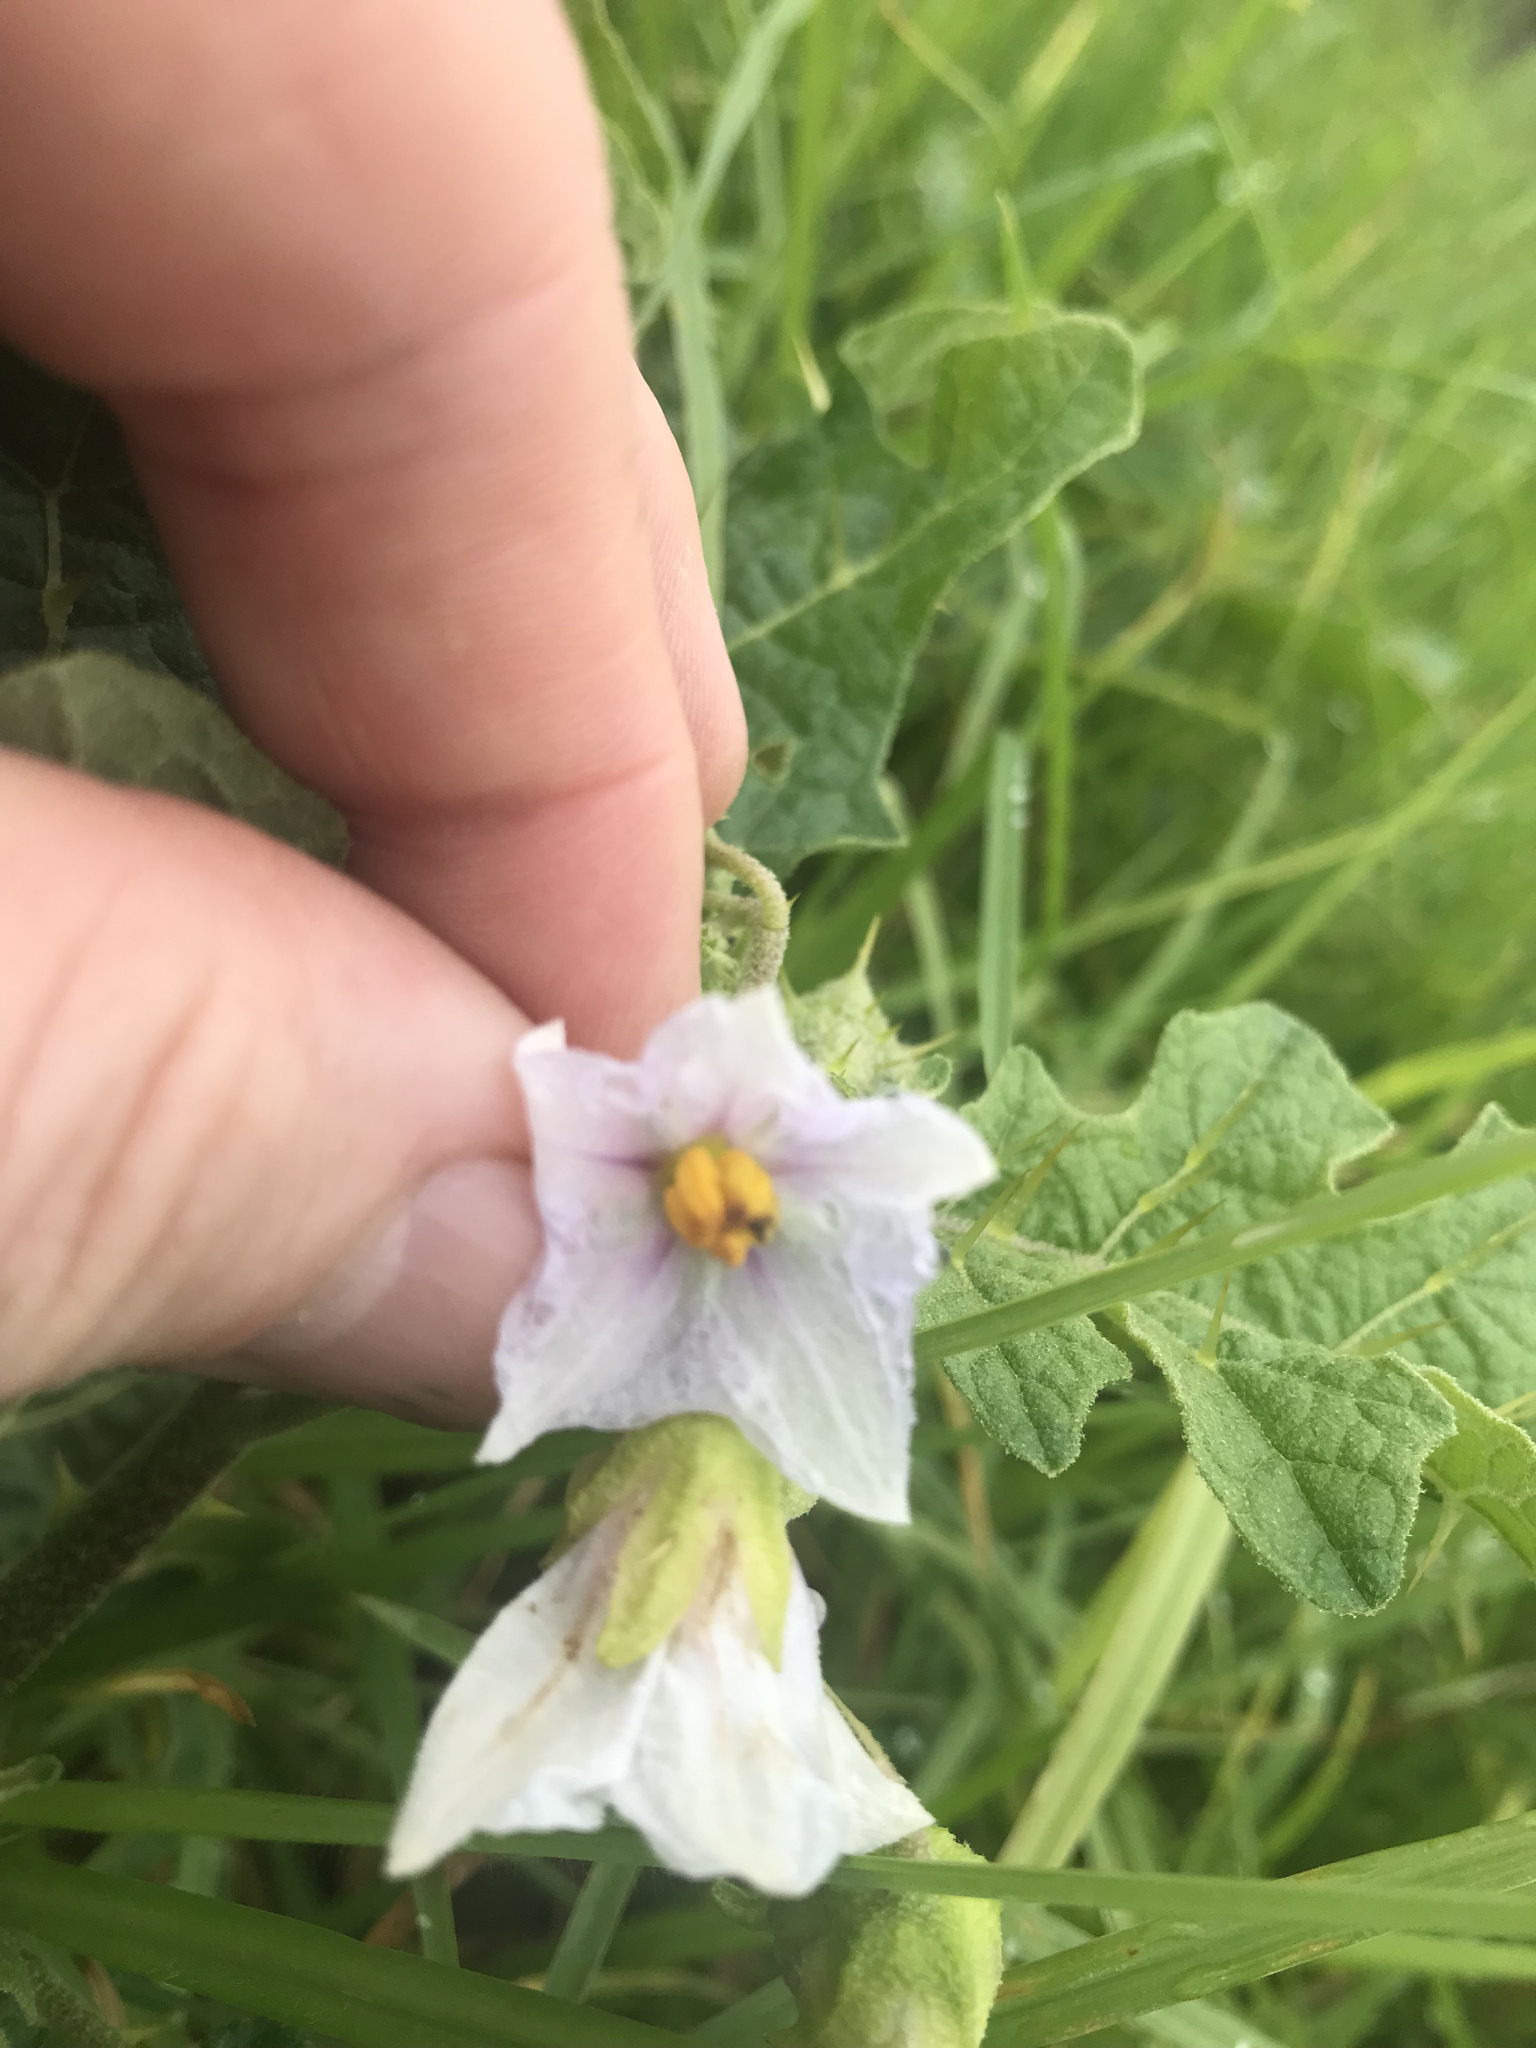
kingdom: Plantae
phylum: Tracheophyta
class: Magnoliopsida
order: Solanales
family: Solanaceae
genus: Solanum
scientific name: Solanum umtuma
